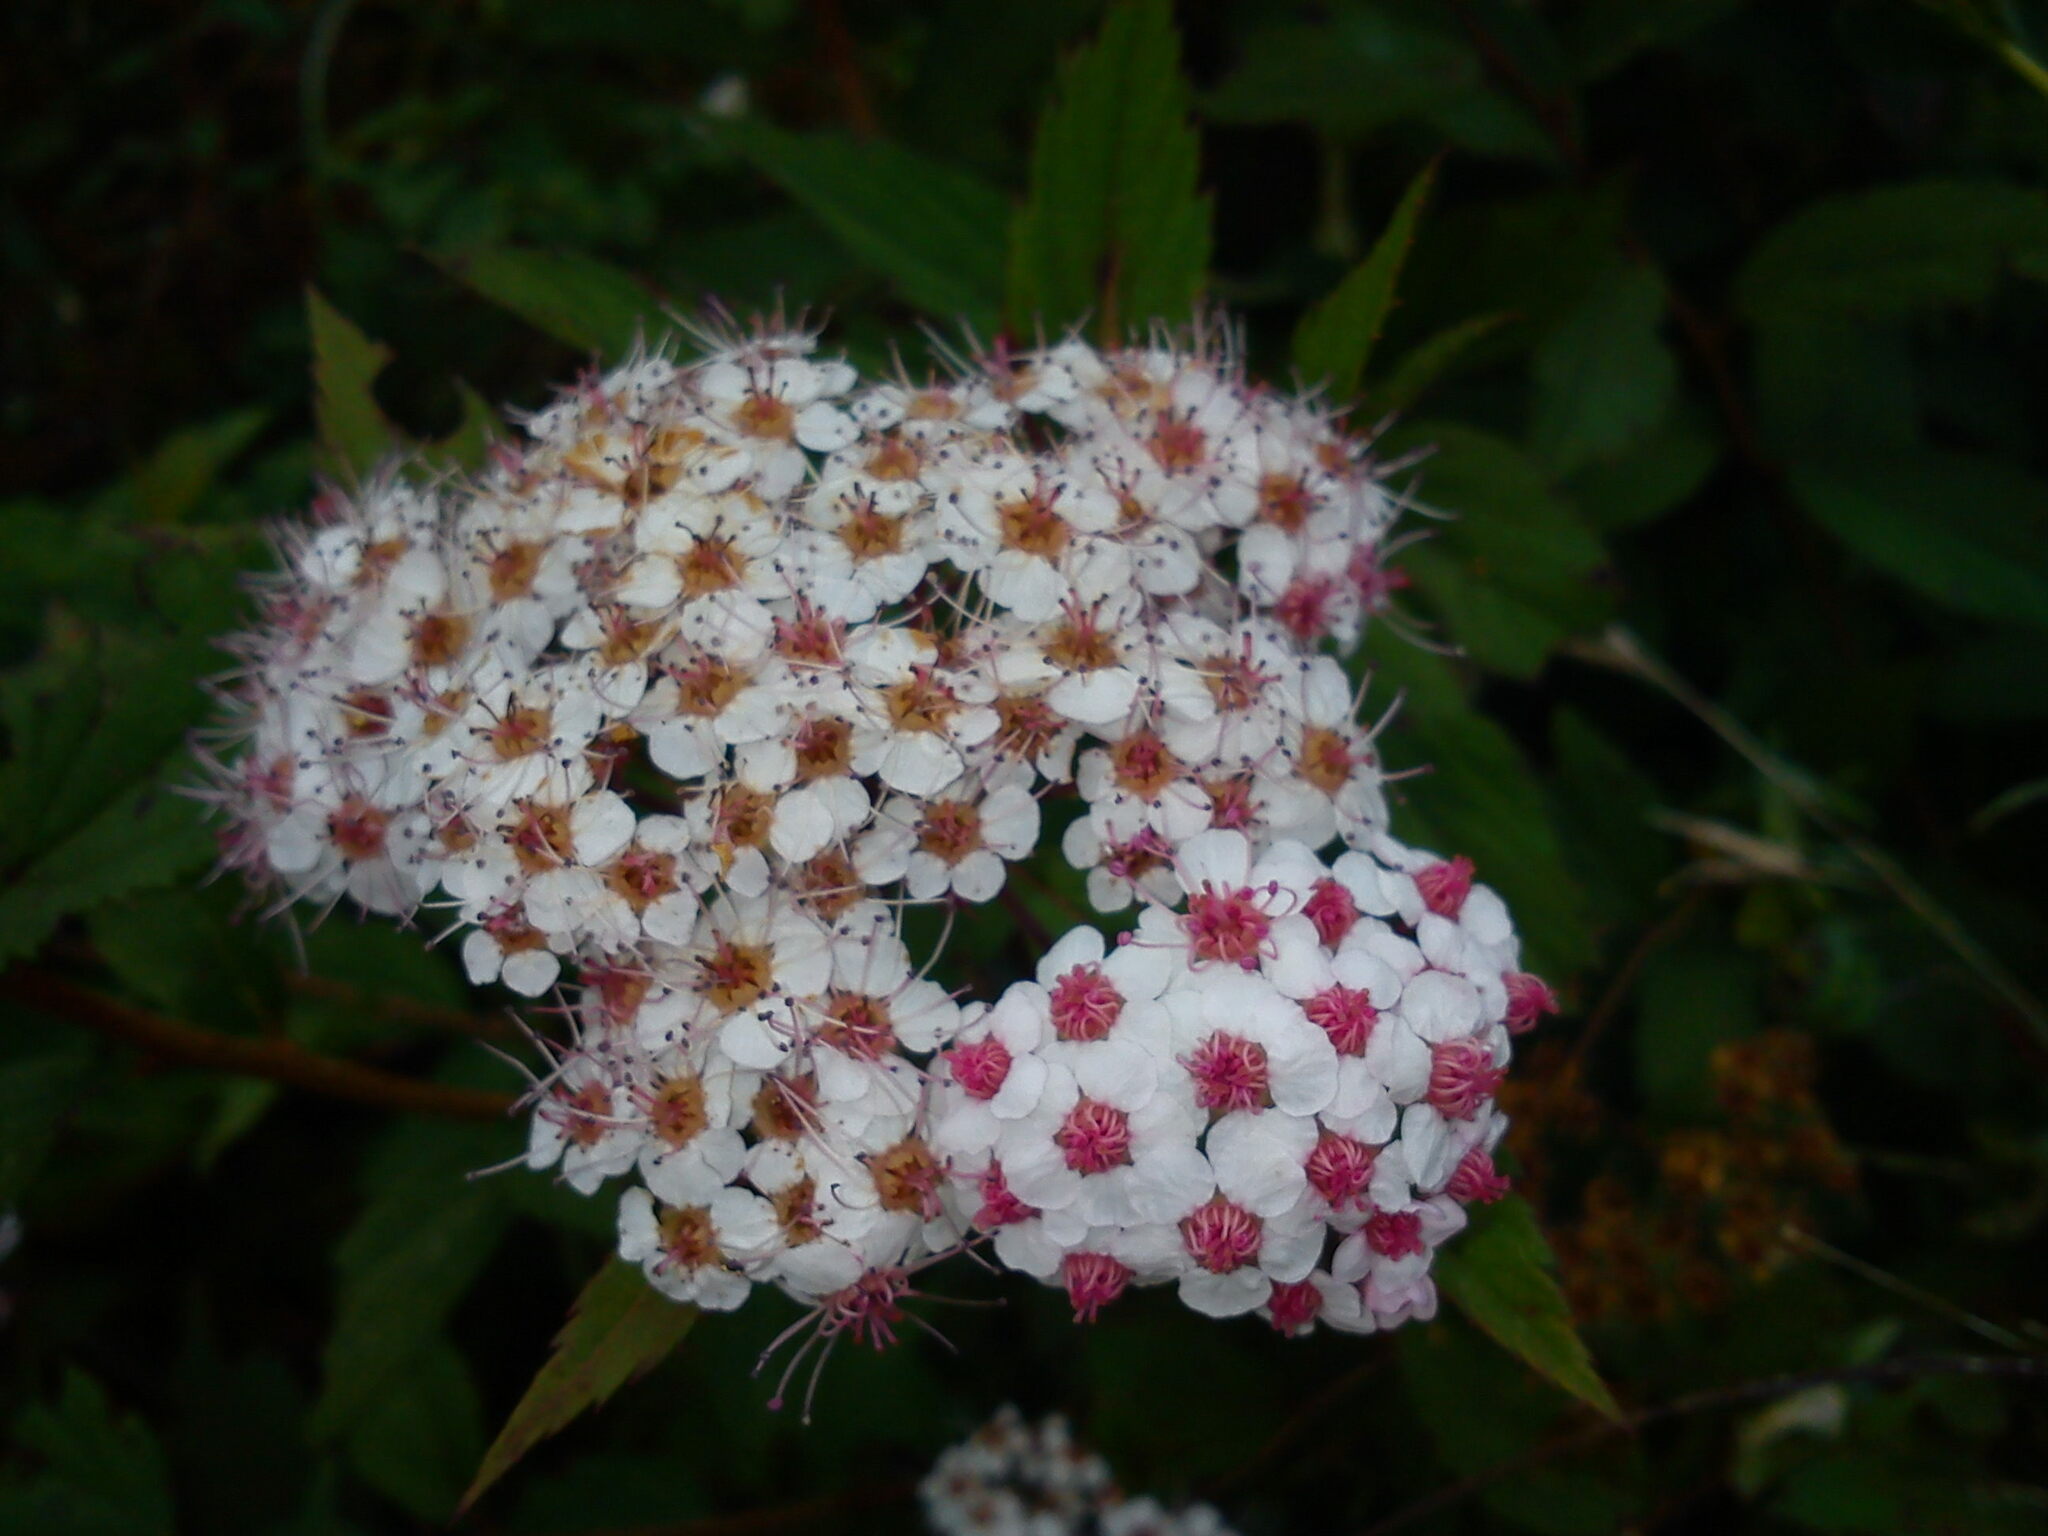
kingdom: Plantae
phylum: Tracheophyta
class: Magnoliopsida
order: Rosales
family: Rosaceae
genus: Spiraea
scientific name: Spiraea japonica
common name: Japanese spiraea
